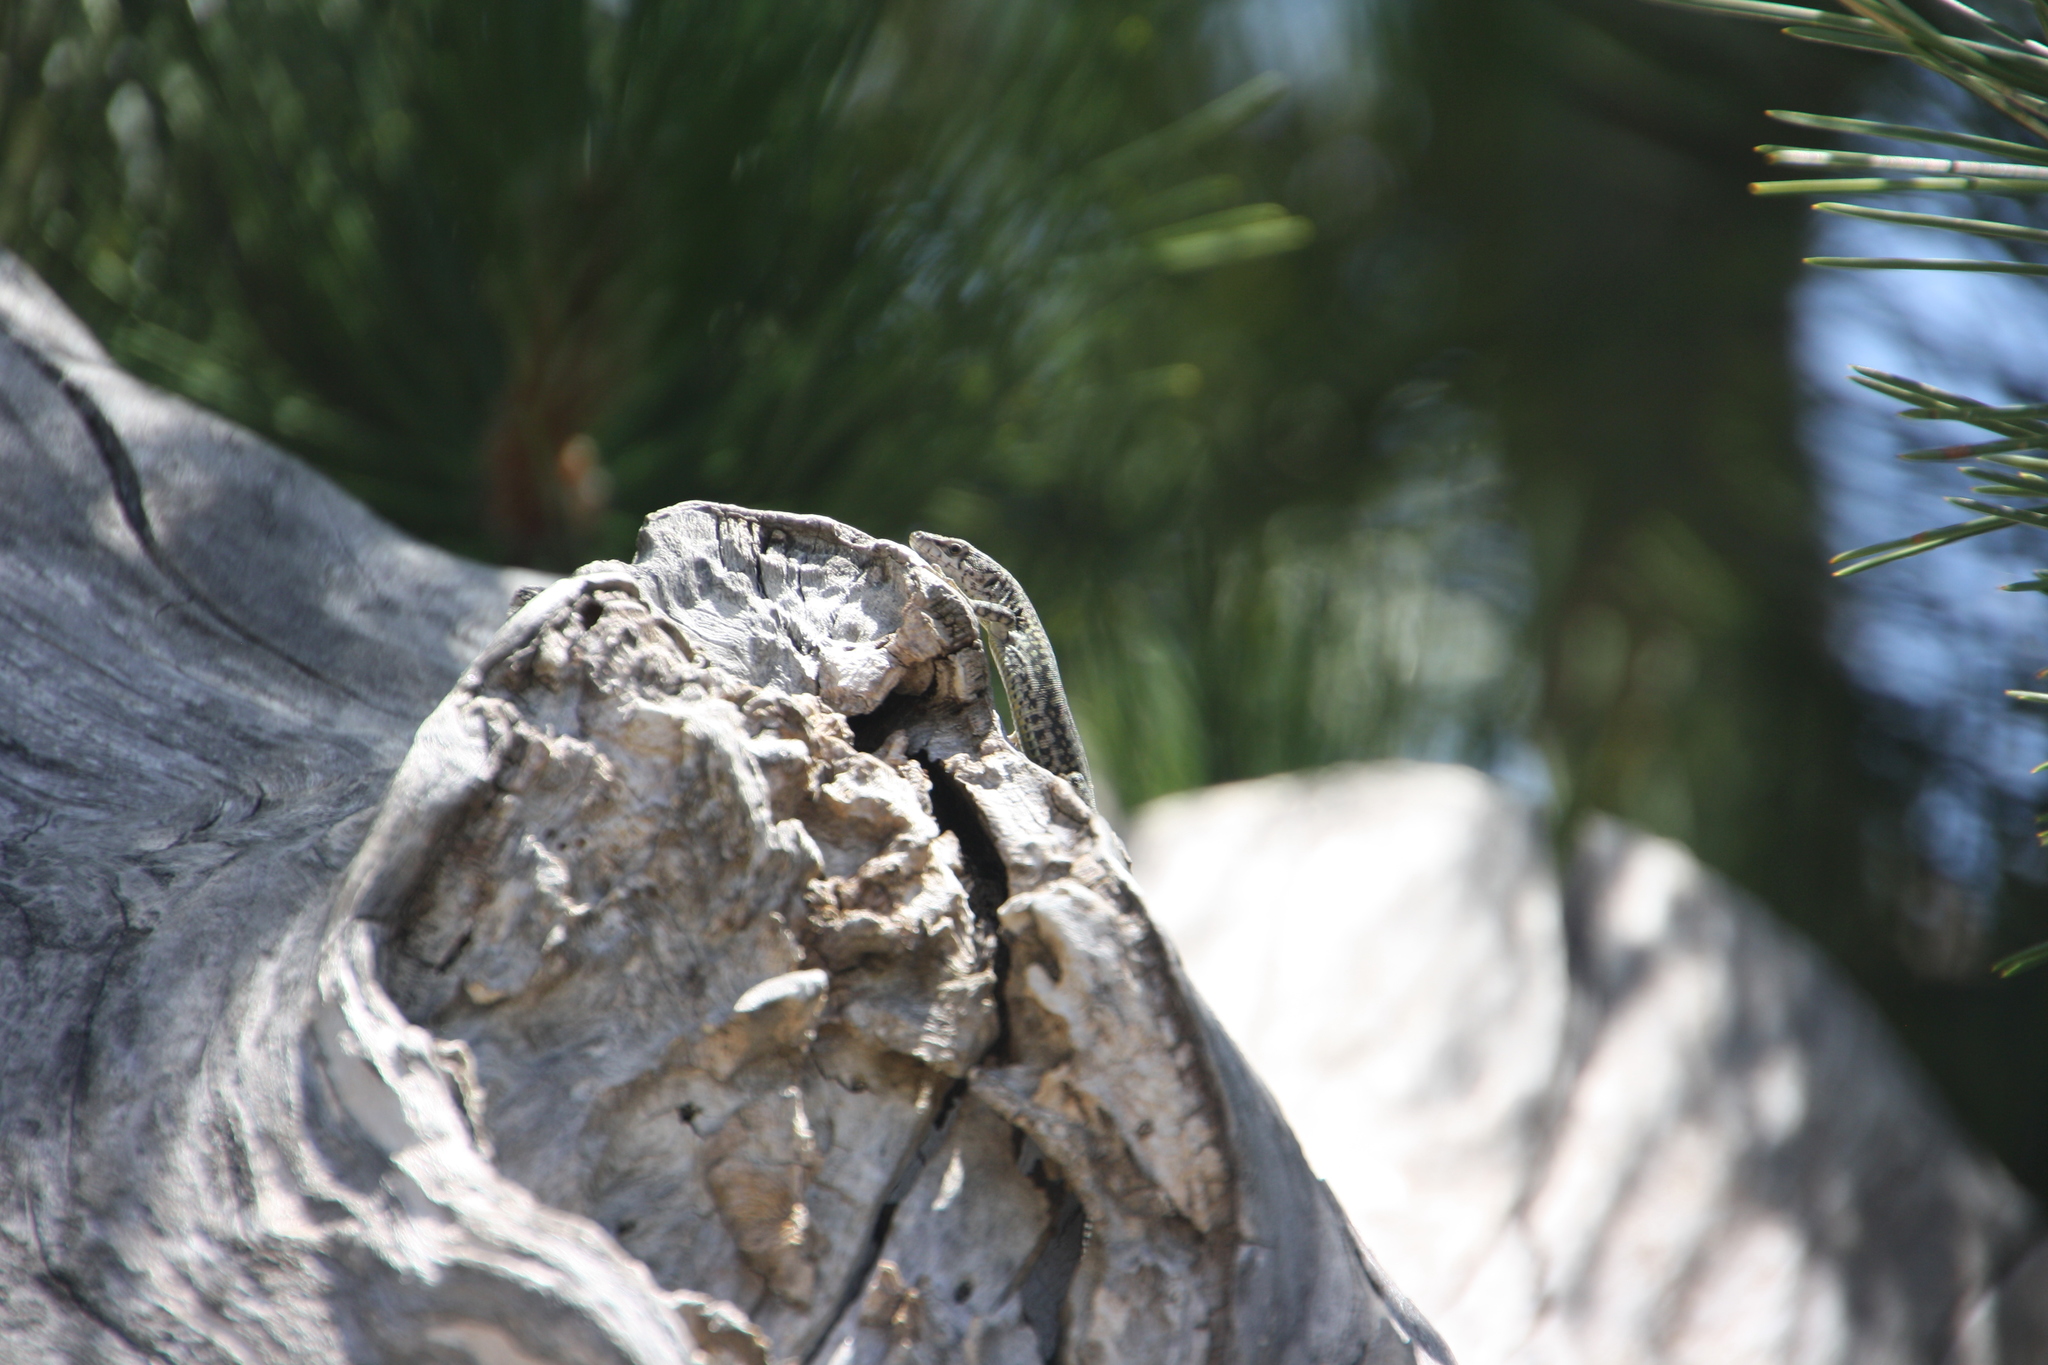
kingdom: Animalia
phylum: Chordata
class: Squamata
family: Lacertidae
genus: Podarcis
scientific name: Podarcis vaucheri
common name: Vaucher's wall lizard
